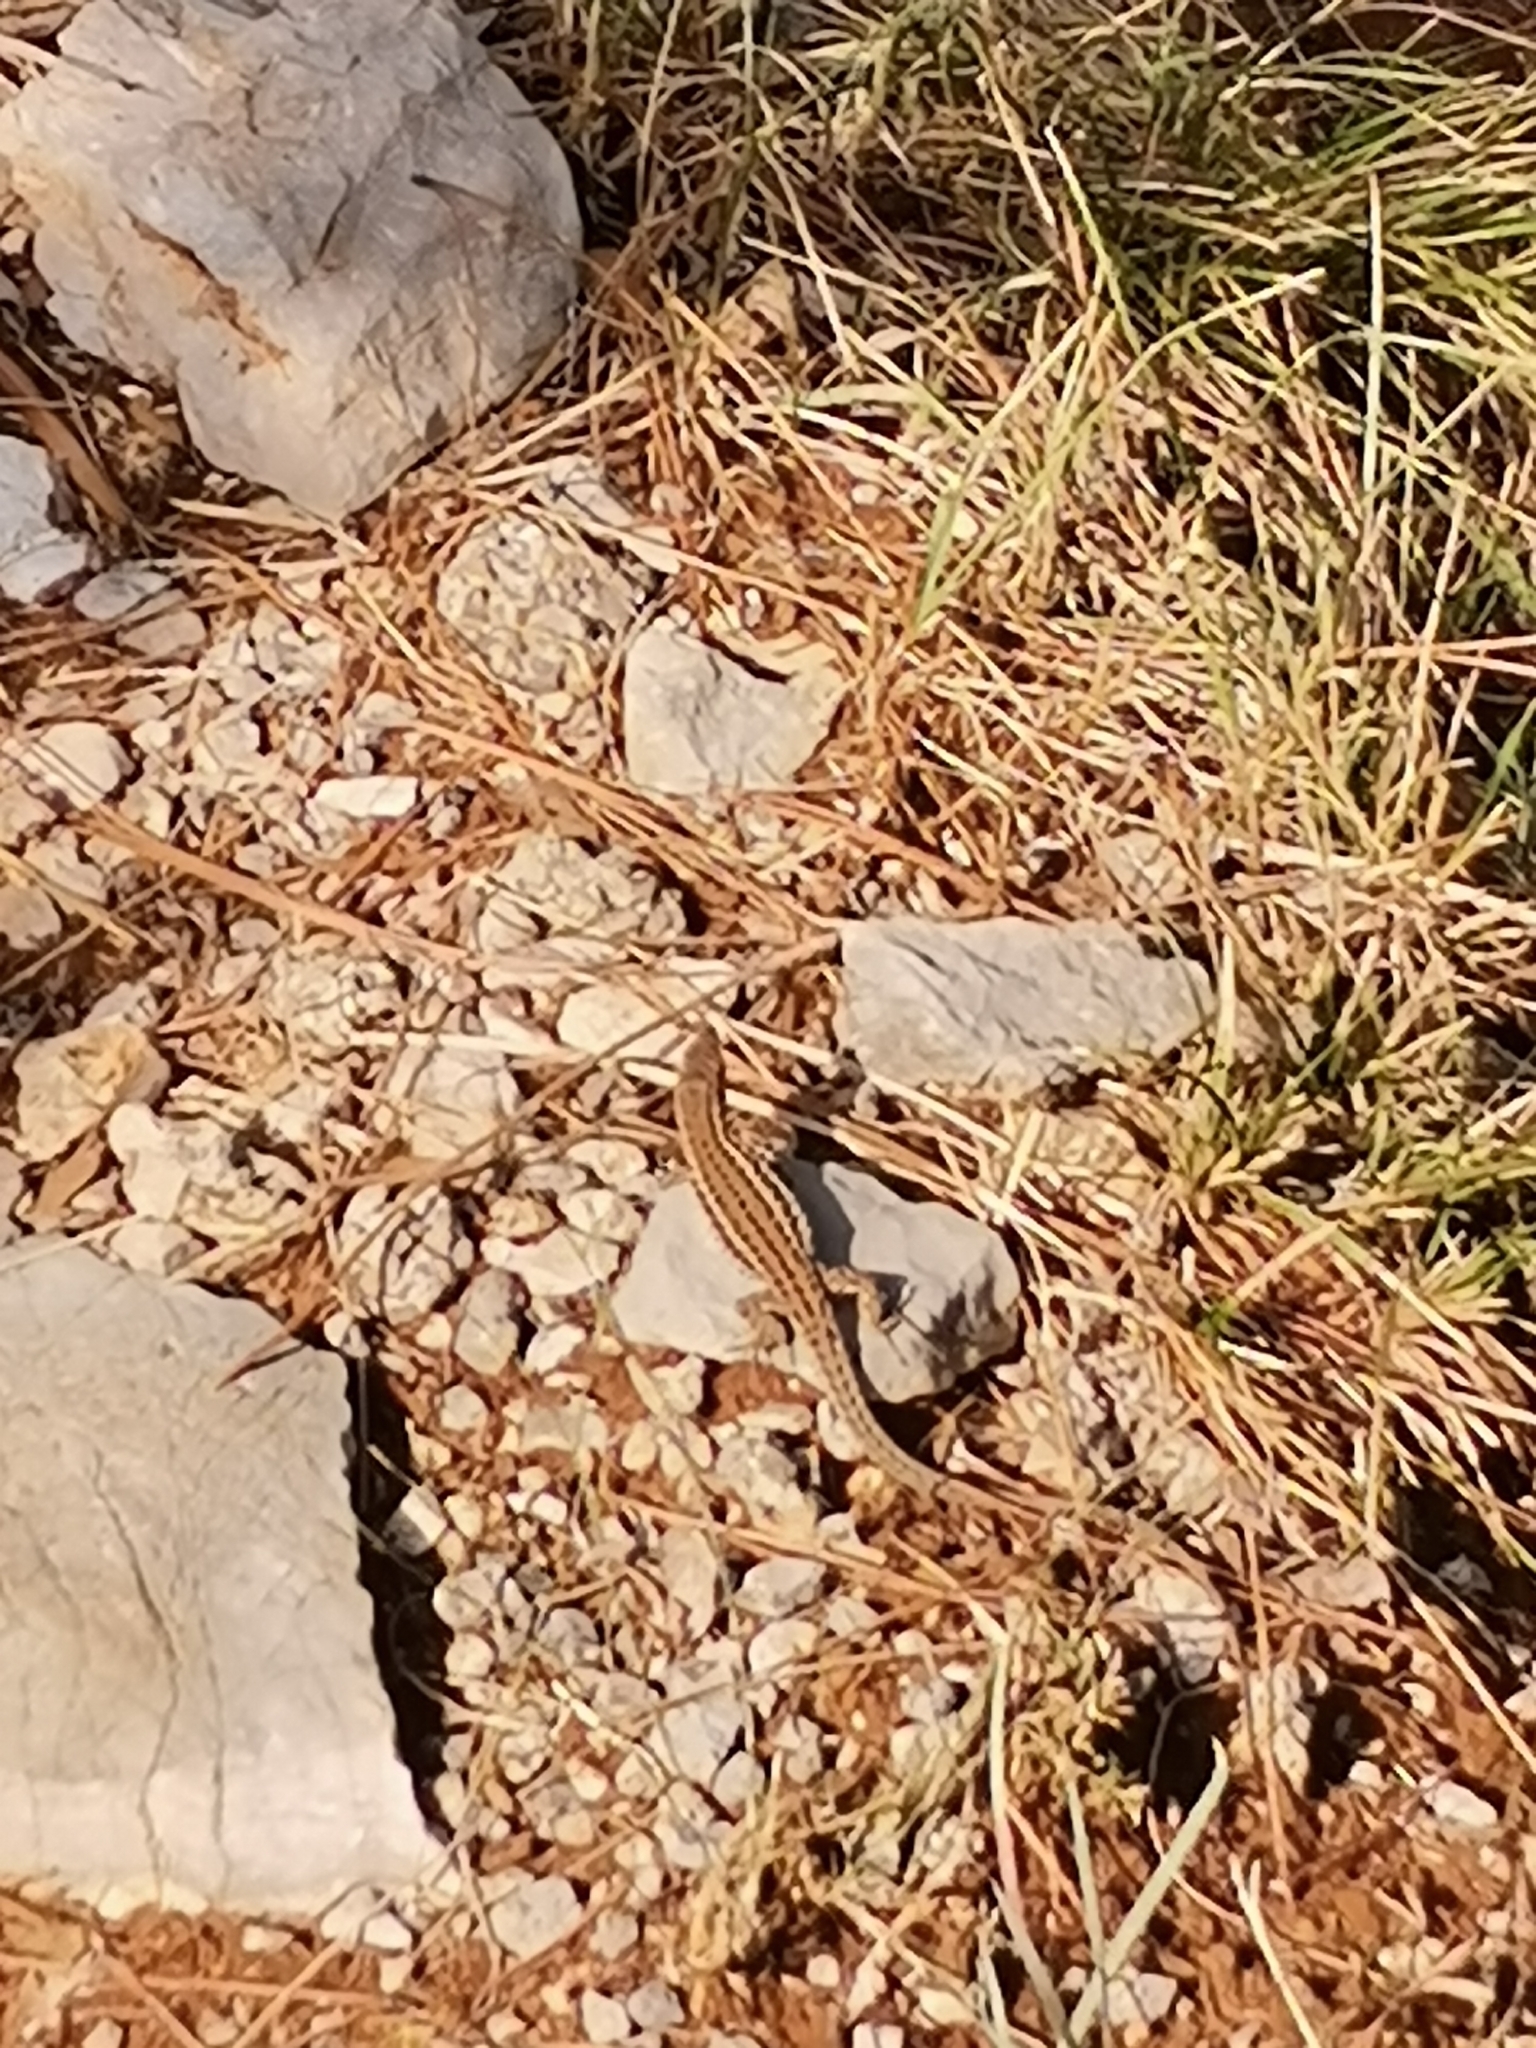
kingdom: Animalia
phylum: Chordata
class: Squamata
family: Lacertidae
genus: Podarcis
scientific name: Podarcis melisellensis
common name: Dalmatian wall lizard
